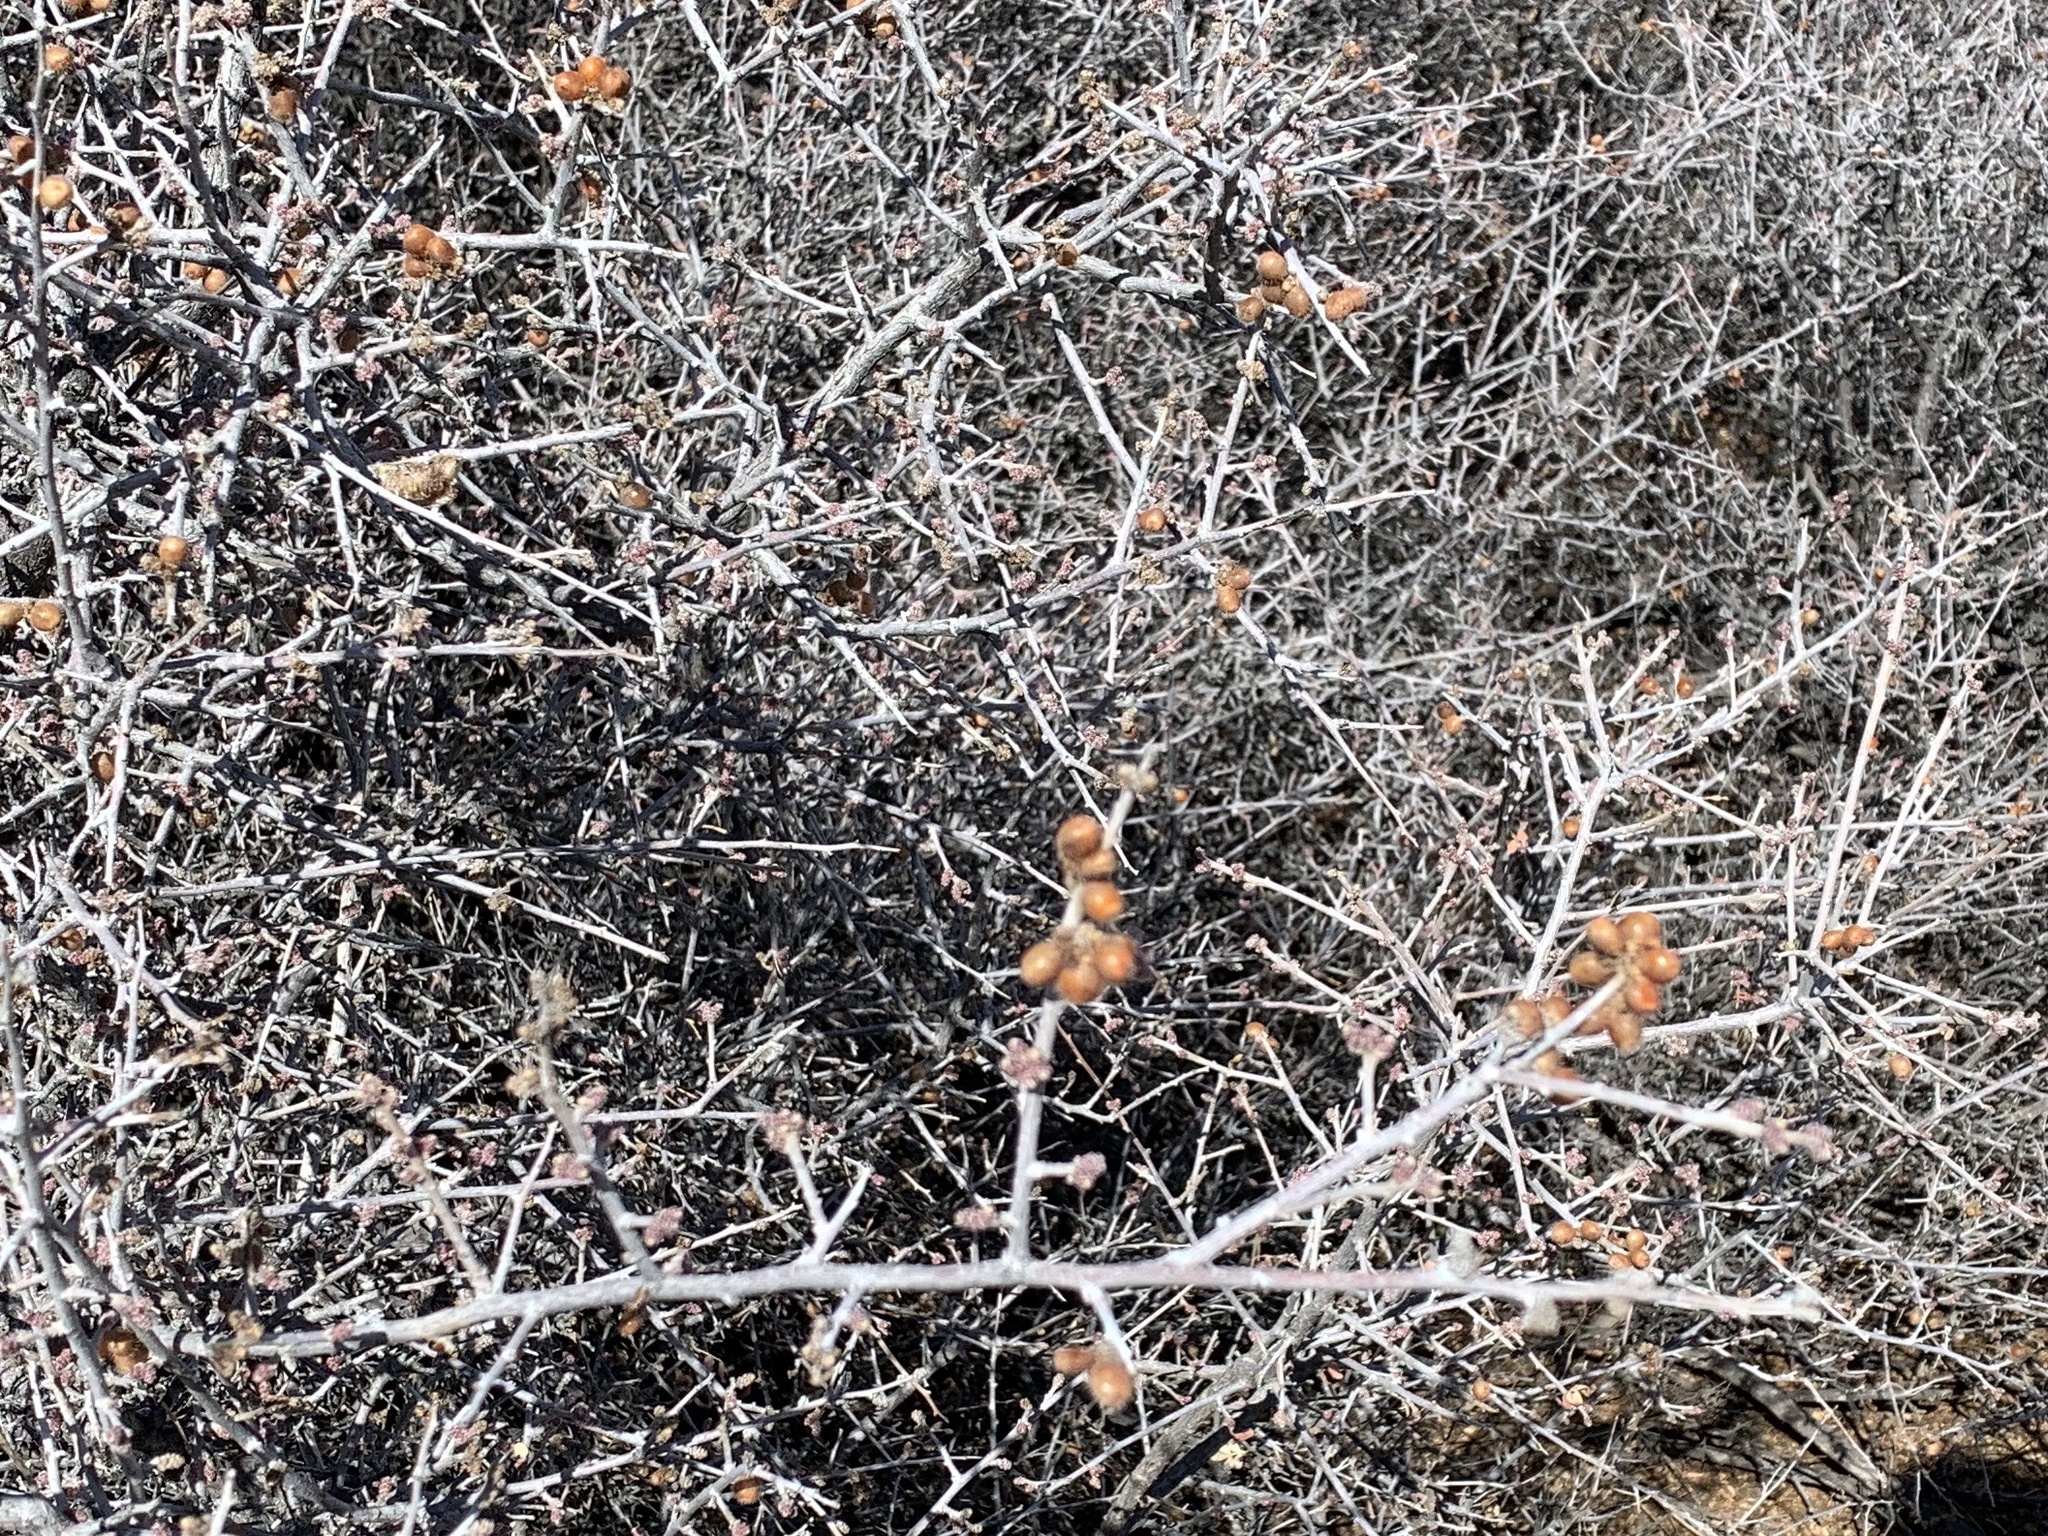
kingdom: Plantae
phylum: Tracheophyta
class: Magnoliopsida
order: Sapindales
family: Anacardiaceae
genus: Rhus
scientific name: Rhus microphylla
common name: Desert sumac
